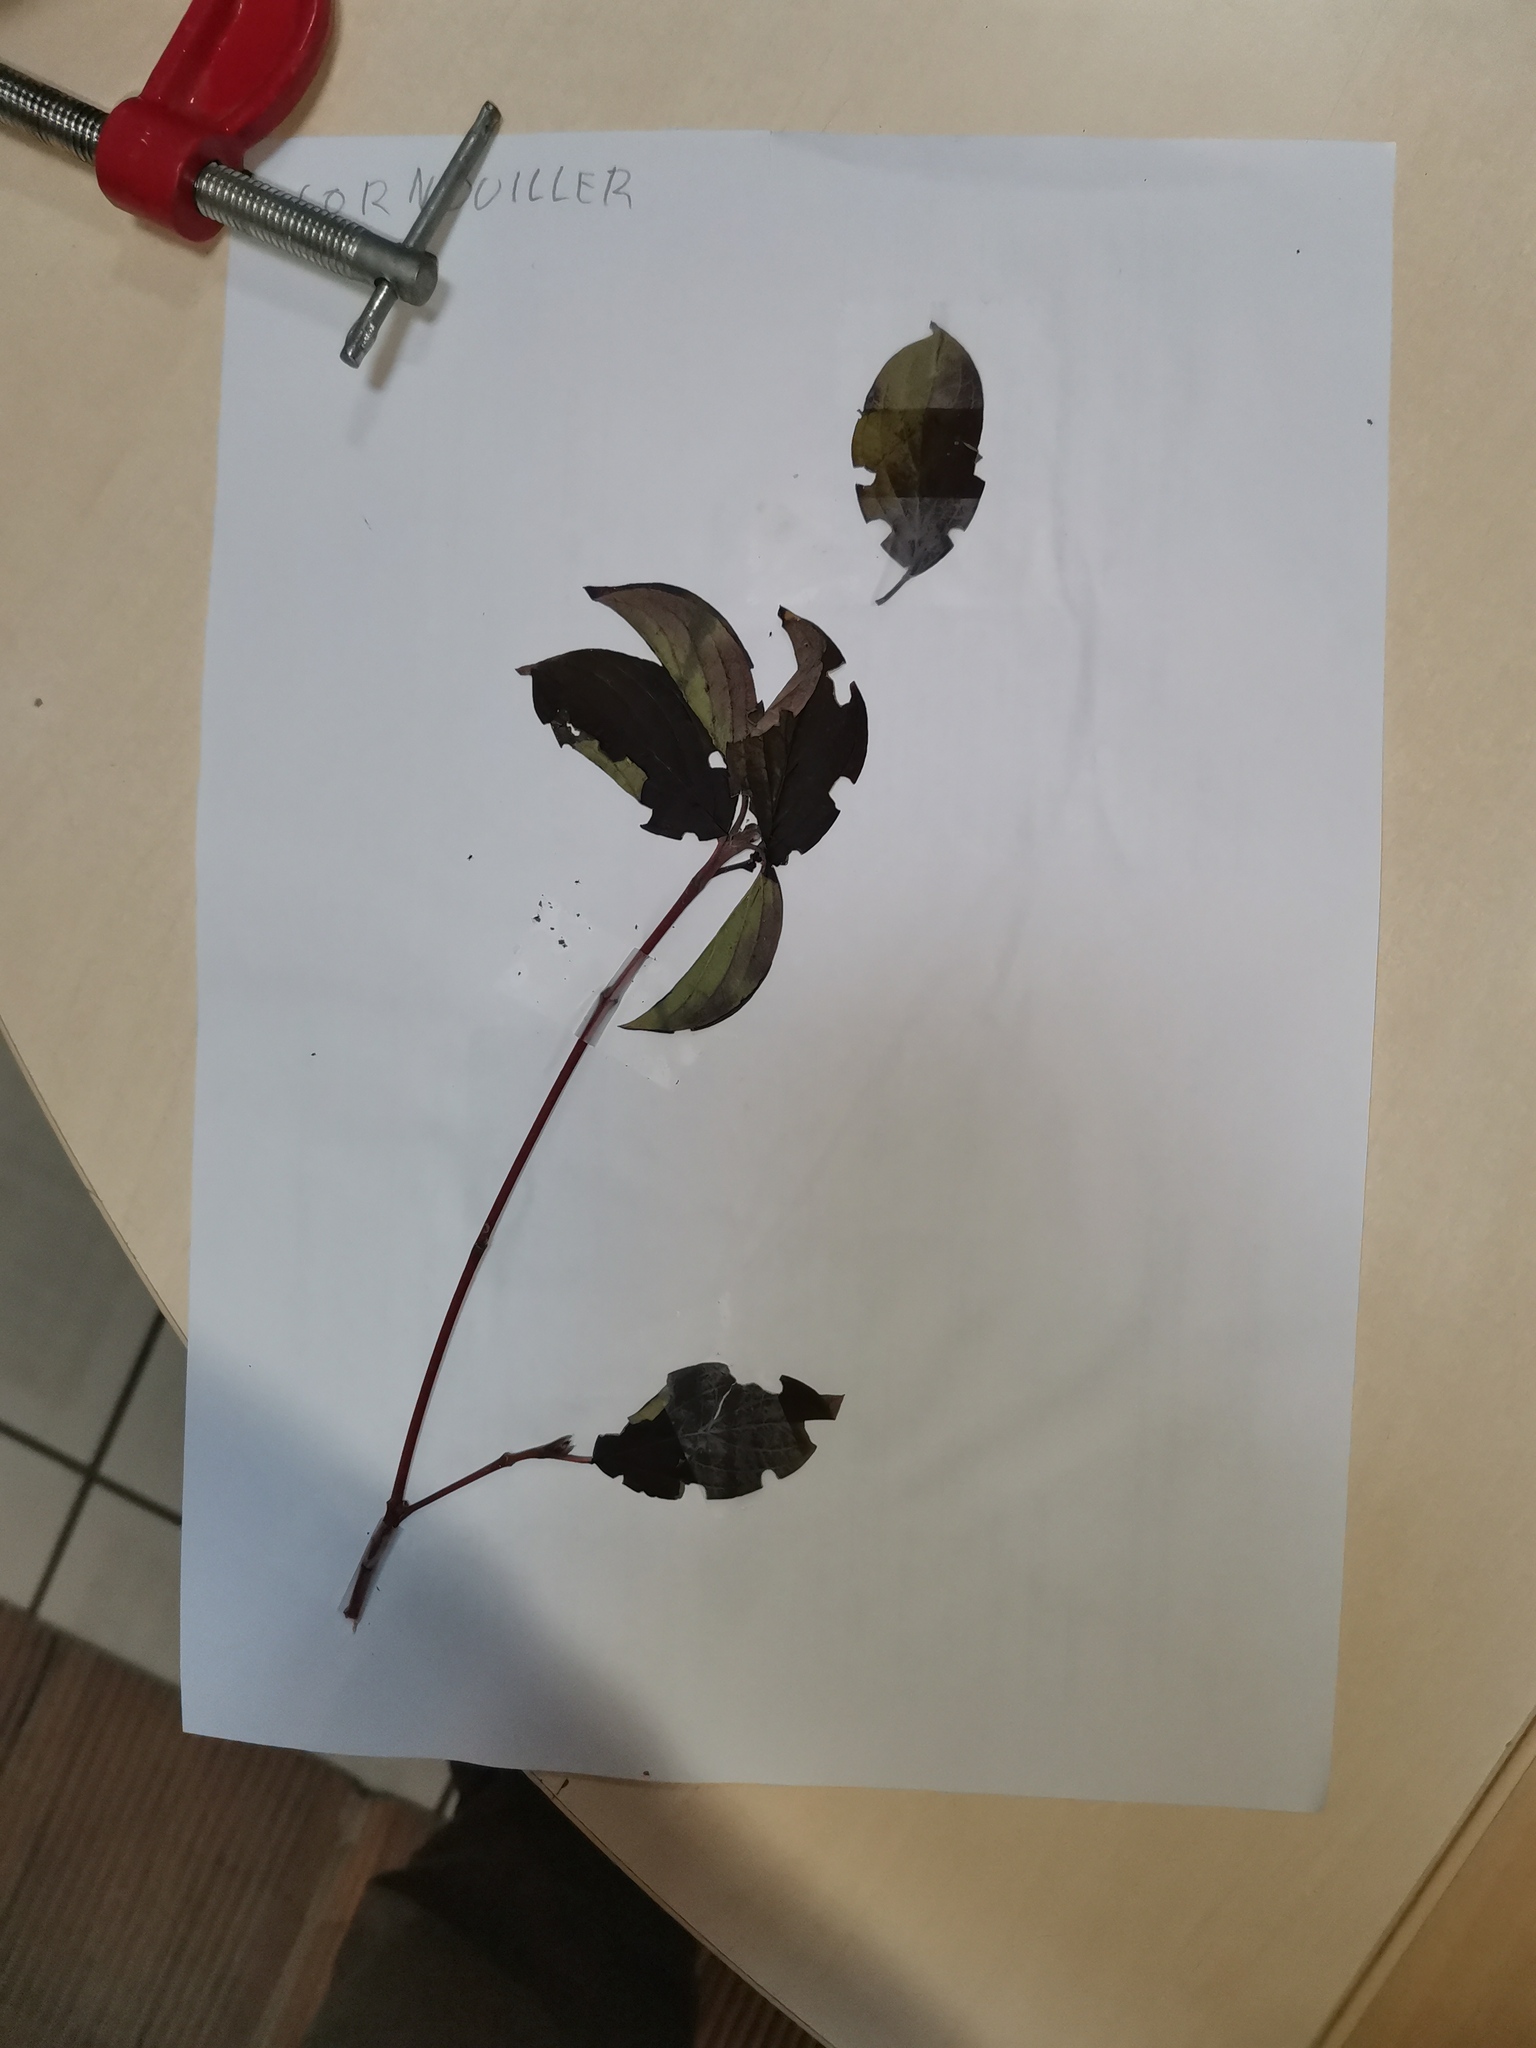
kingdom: Plantae
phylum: Tracheophyta
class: Magnoliopsida
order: Cornales
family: Cornaceae
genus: Cornus
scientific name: Cornus sanguinea
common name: Dogwood
